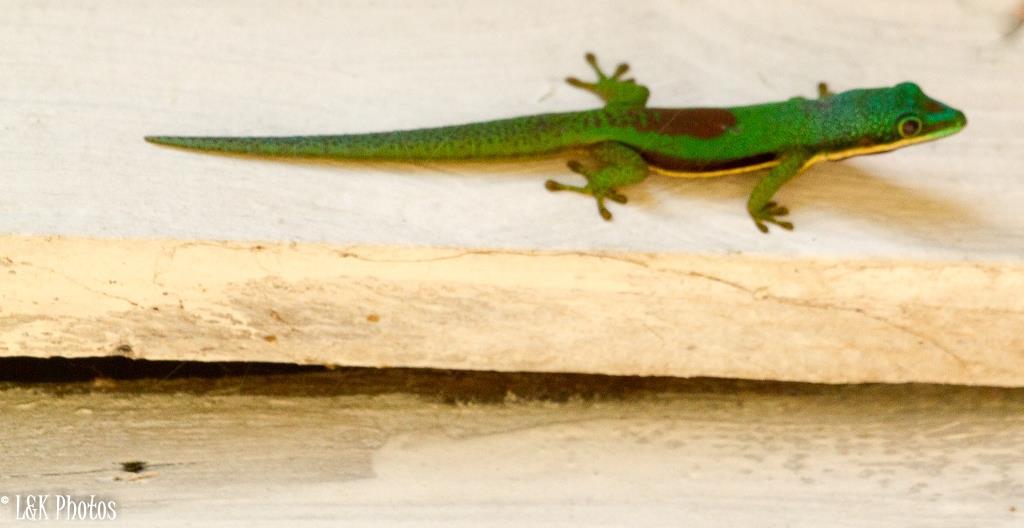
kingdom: Animalia
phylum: Chordata
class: Squamata
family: Gekkonidae
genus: Phelsuma
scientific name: Phelsuma lineata
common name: Lined day gecko
